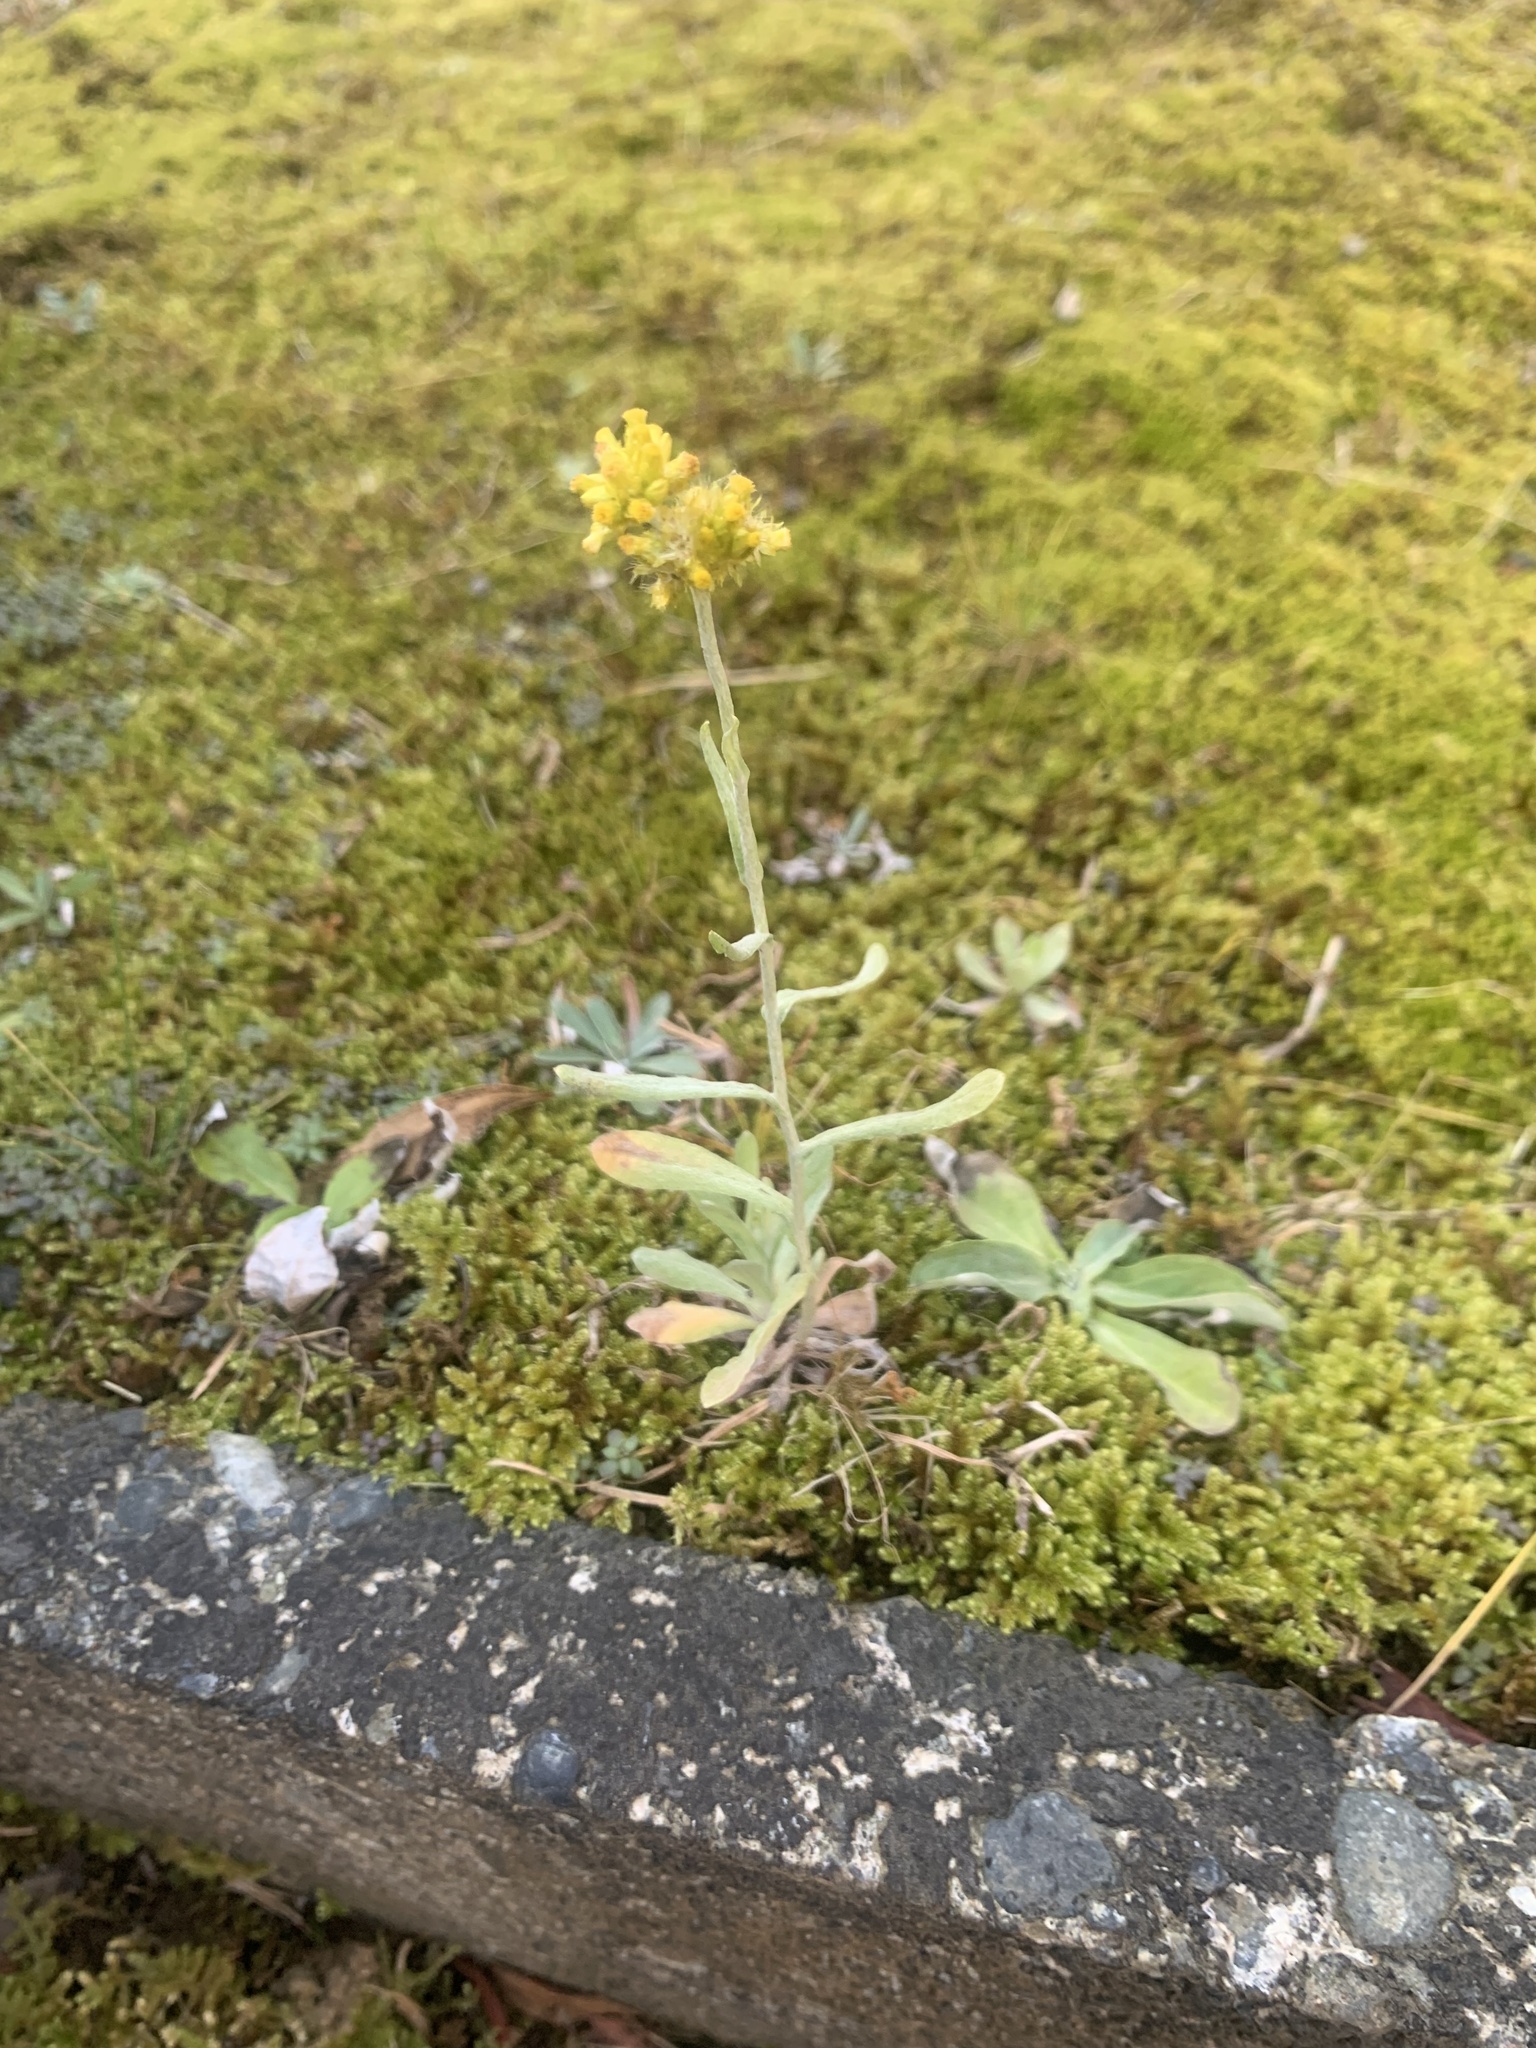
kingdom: Plantae
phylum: Tracheophyta
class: Magnoliopsida
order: Asterales
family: Asteraceae
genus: Pseudognaphalium
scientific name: Pseudognaphalium affine
